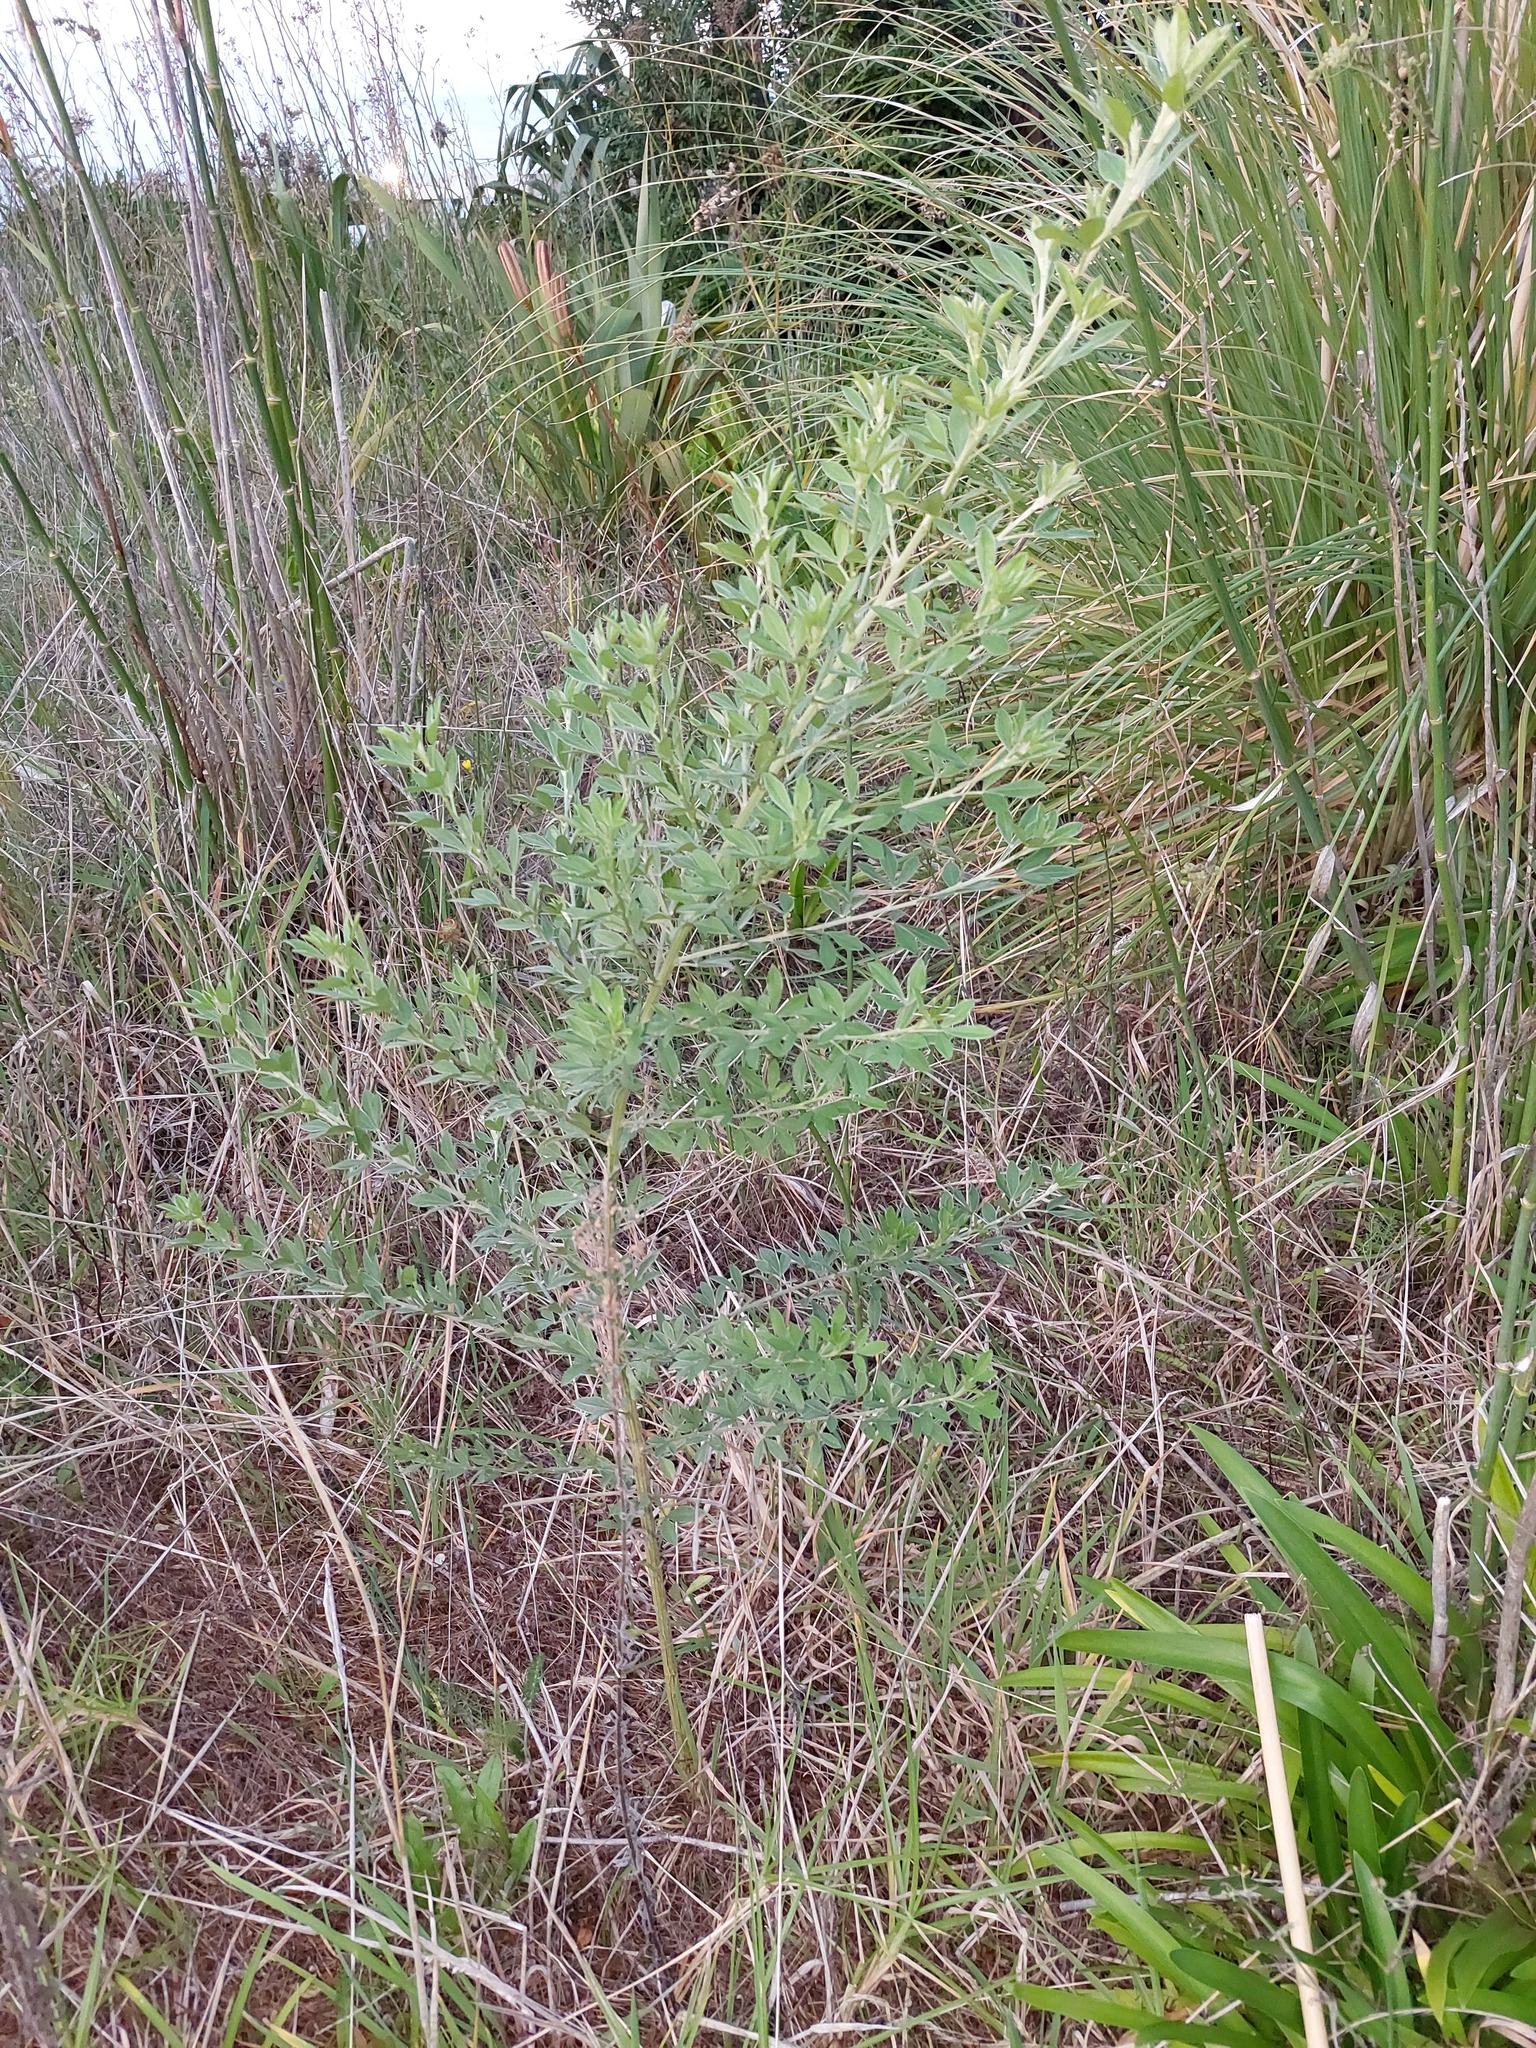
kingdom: Plantae
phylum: Tracheophyta
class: Magnoliopsida
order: Fabales
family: Fabaceae
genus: Chamaecytisus
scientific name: Chamaecytisus prolifer
